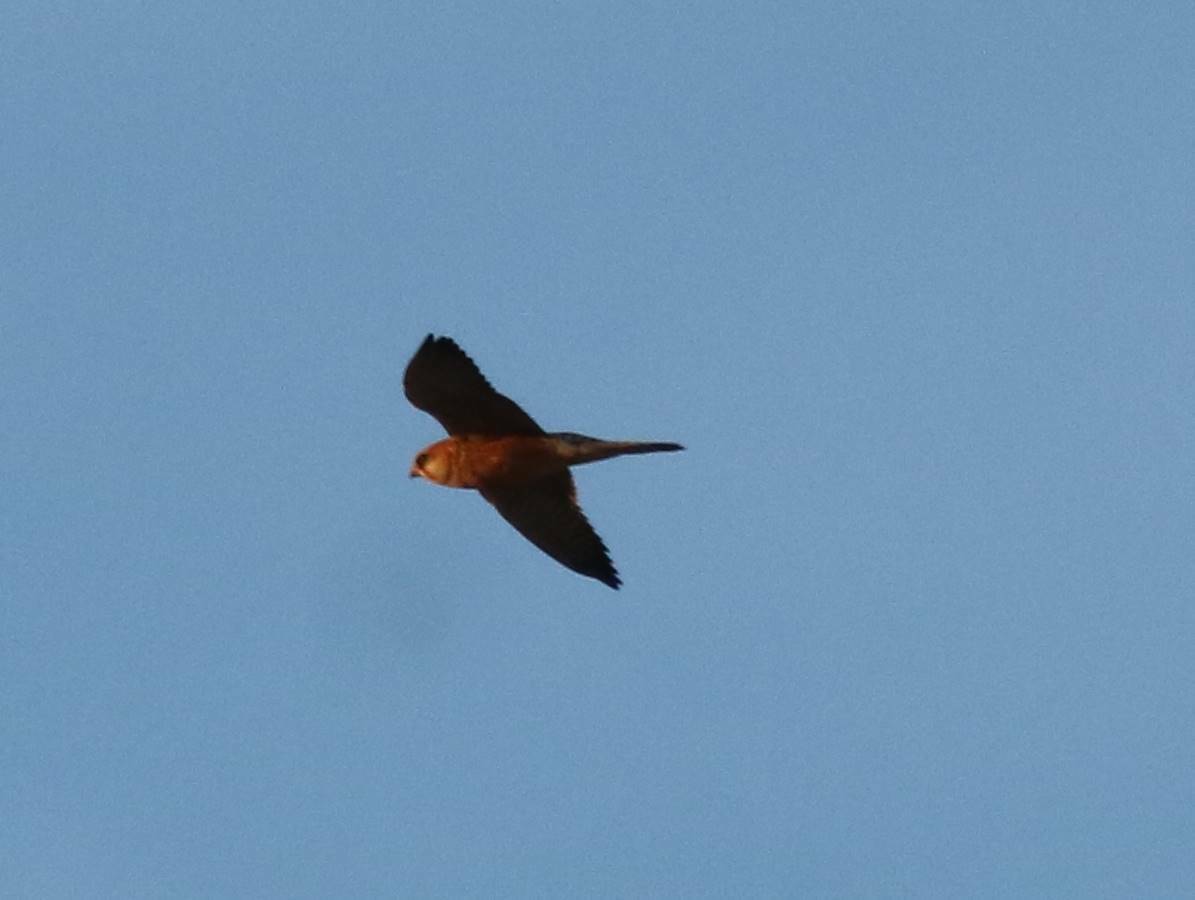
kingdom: Animalia
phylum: Chordata
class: Aves
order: Falconiformes
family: Falconidae
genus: Falco
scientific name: Falco vespertinus
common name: Red-footed falcon
